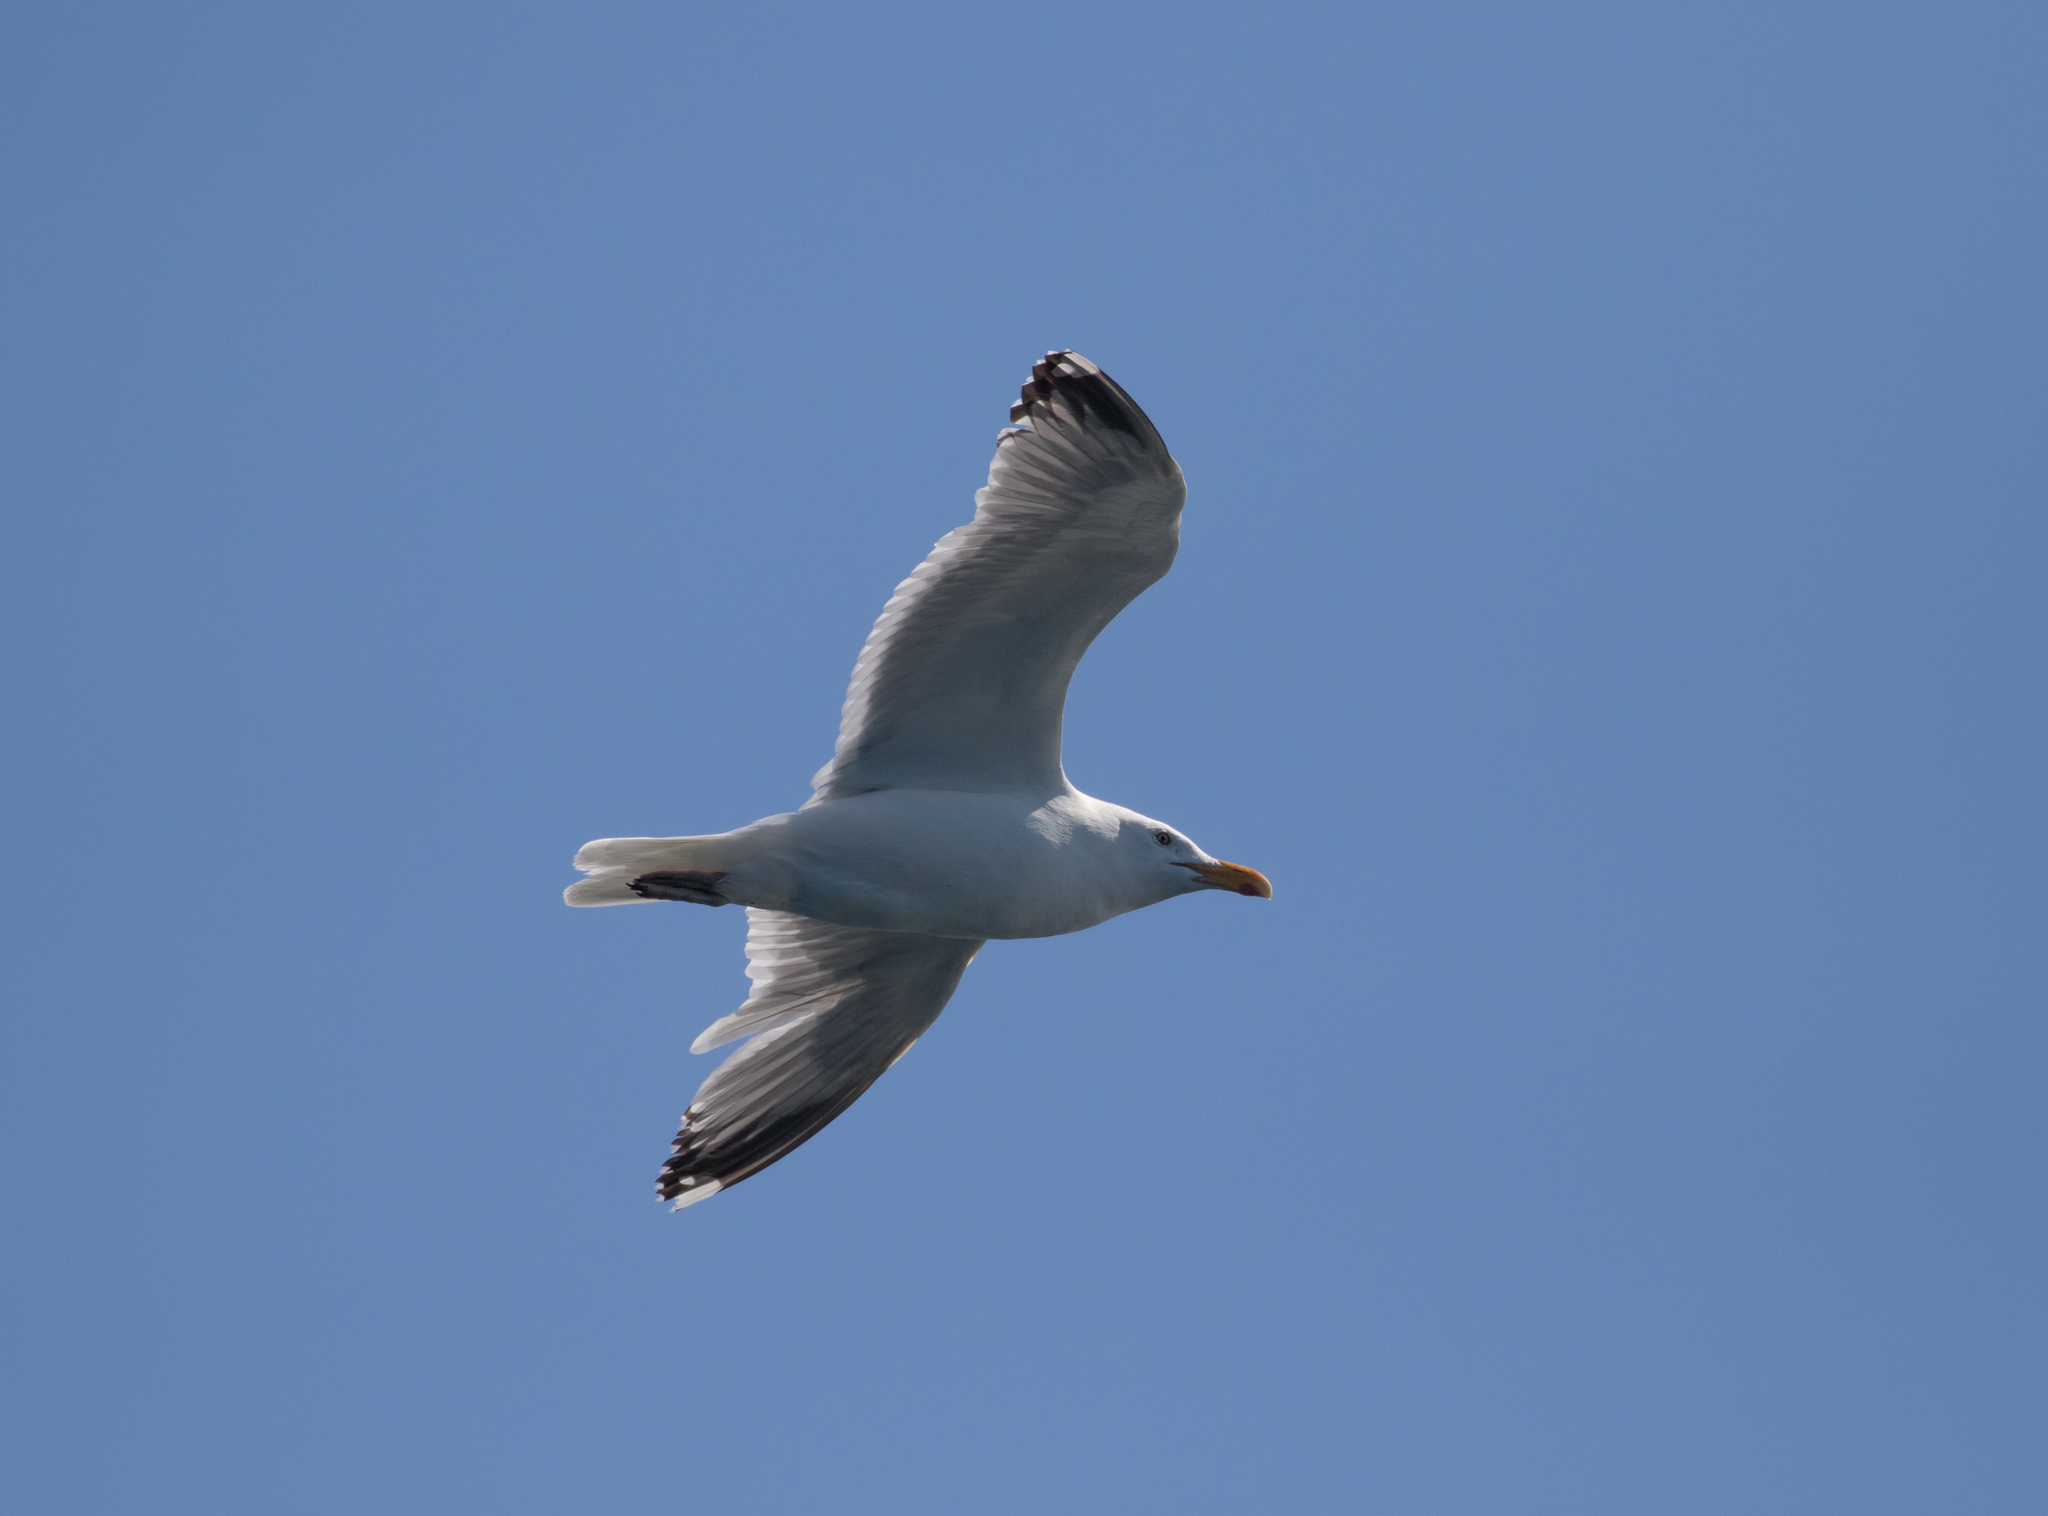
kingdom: Animalia
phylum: Chordata
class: Aves
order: Charadriiformes
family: Laridae
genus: Larus
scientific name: Larus argentatus
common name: Herring gull
